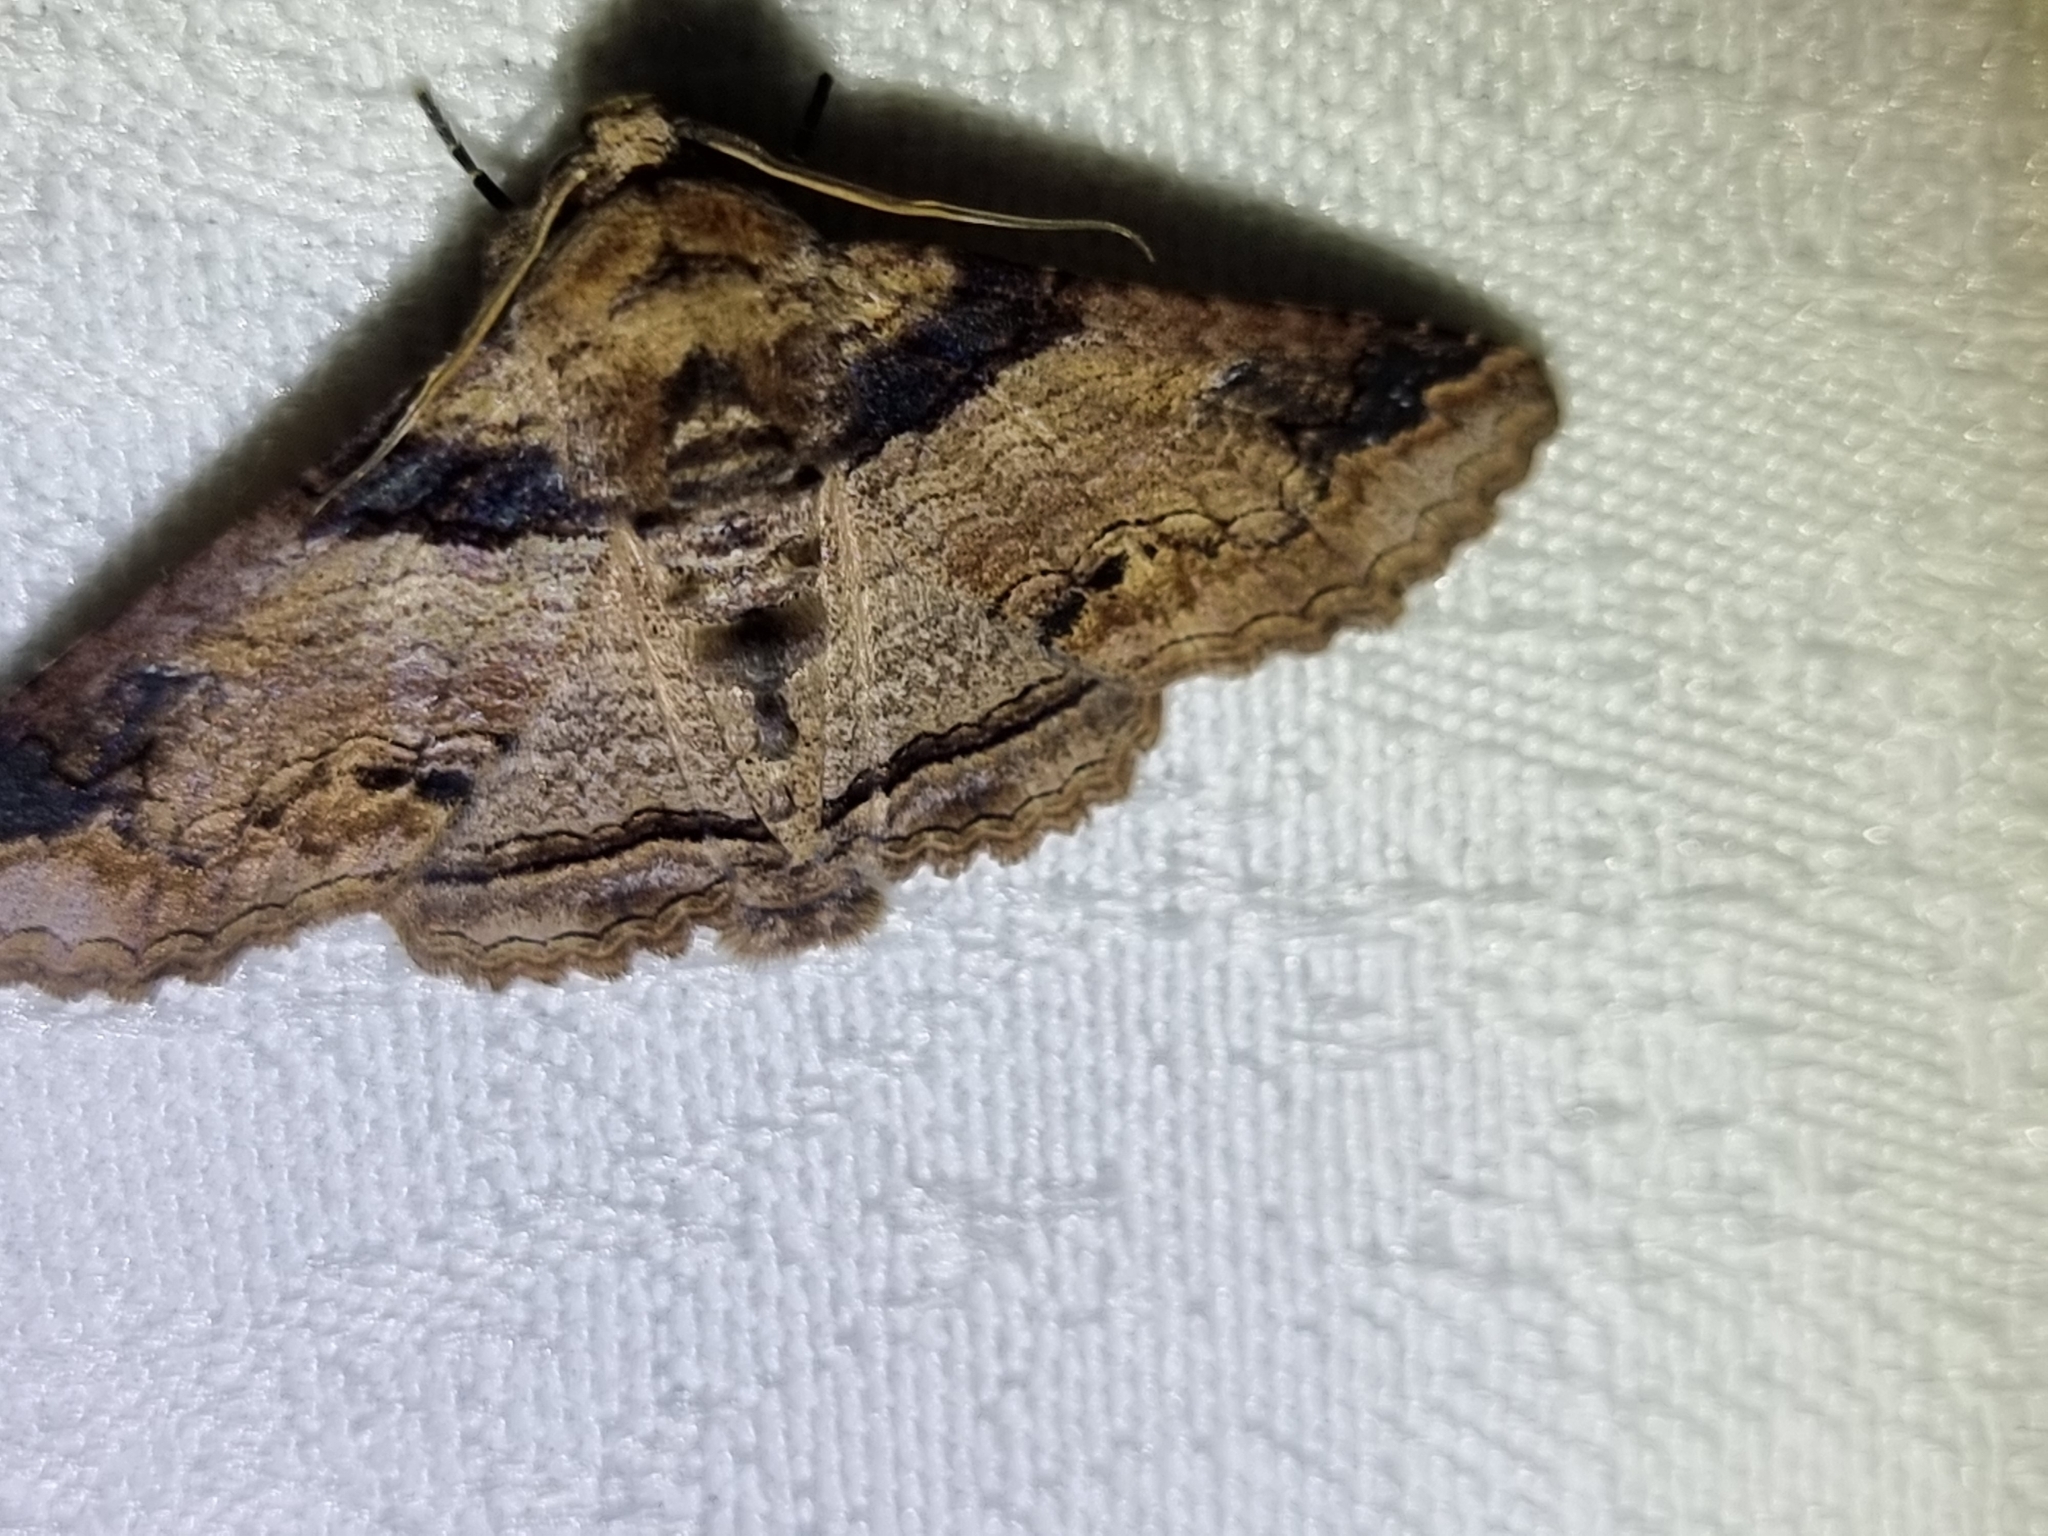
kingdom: Animalia
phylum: Arthropoda
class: Insecta
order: Lepidoptera
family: Erebidae
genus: Pericyma
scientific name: Pericyma cruegeri
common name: Poinciana looper
